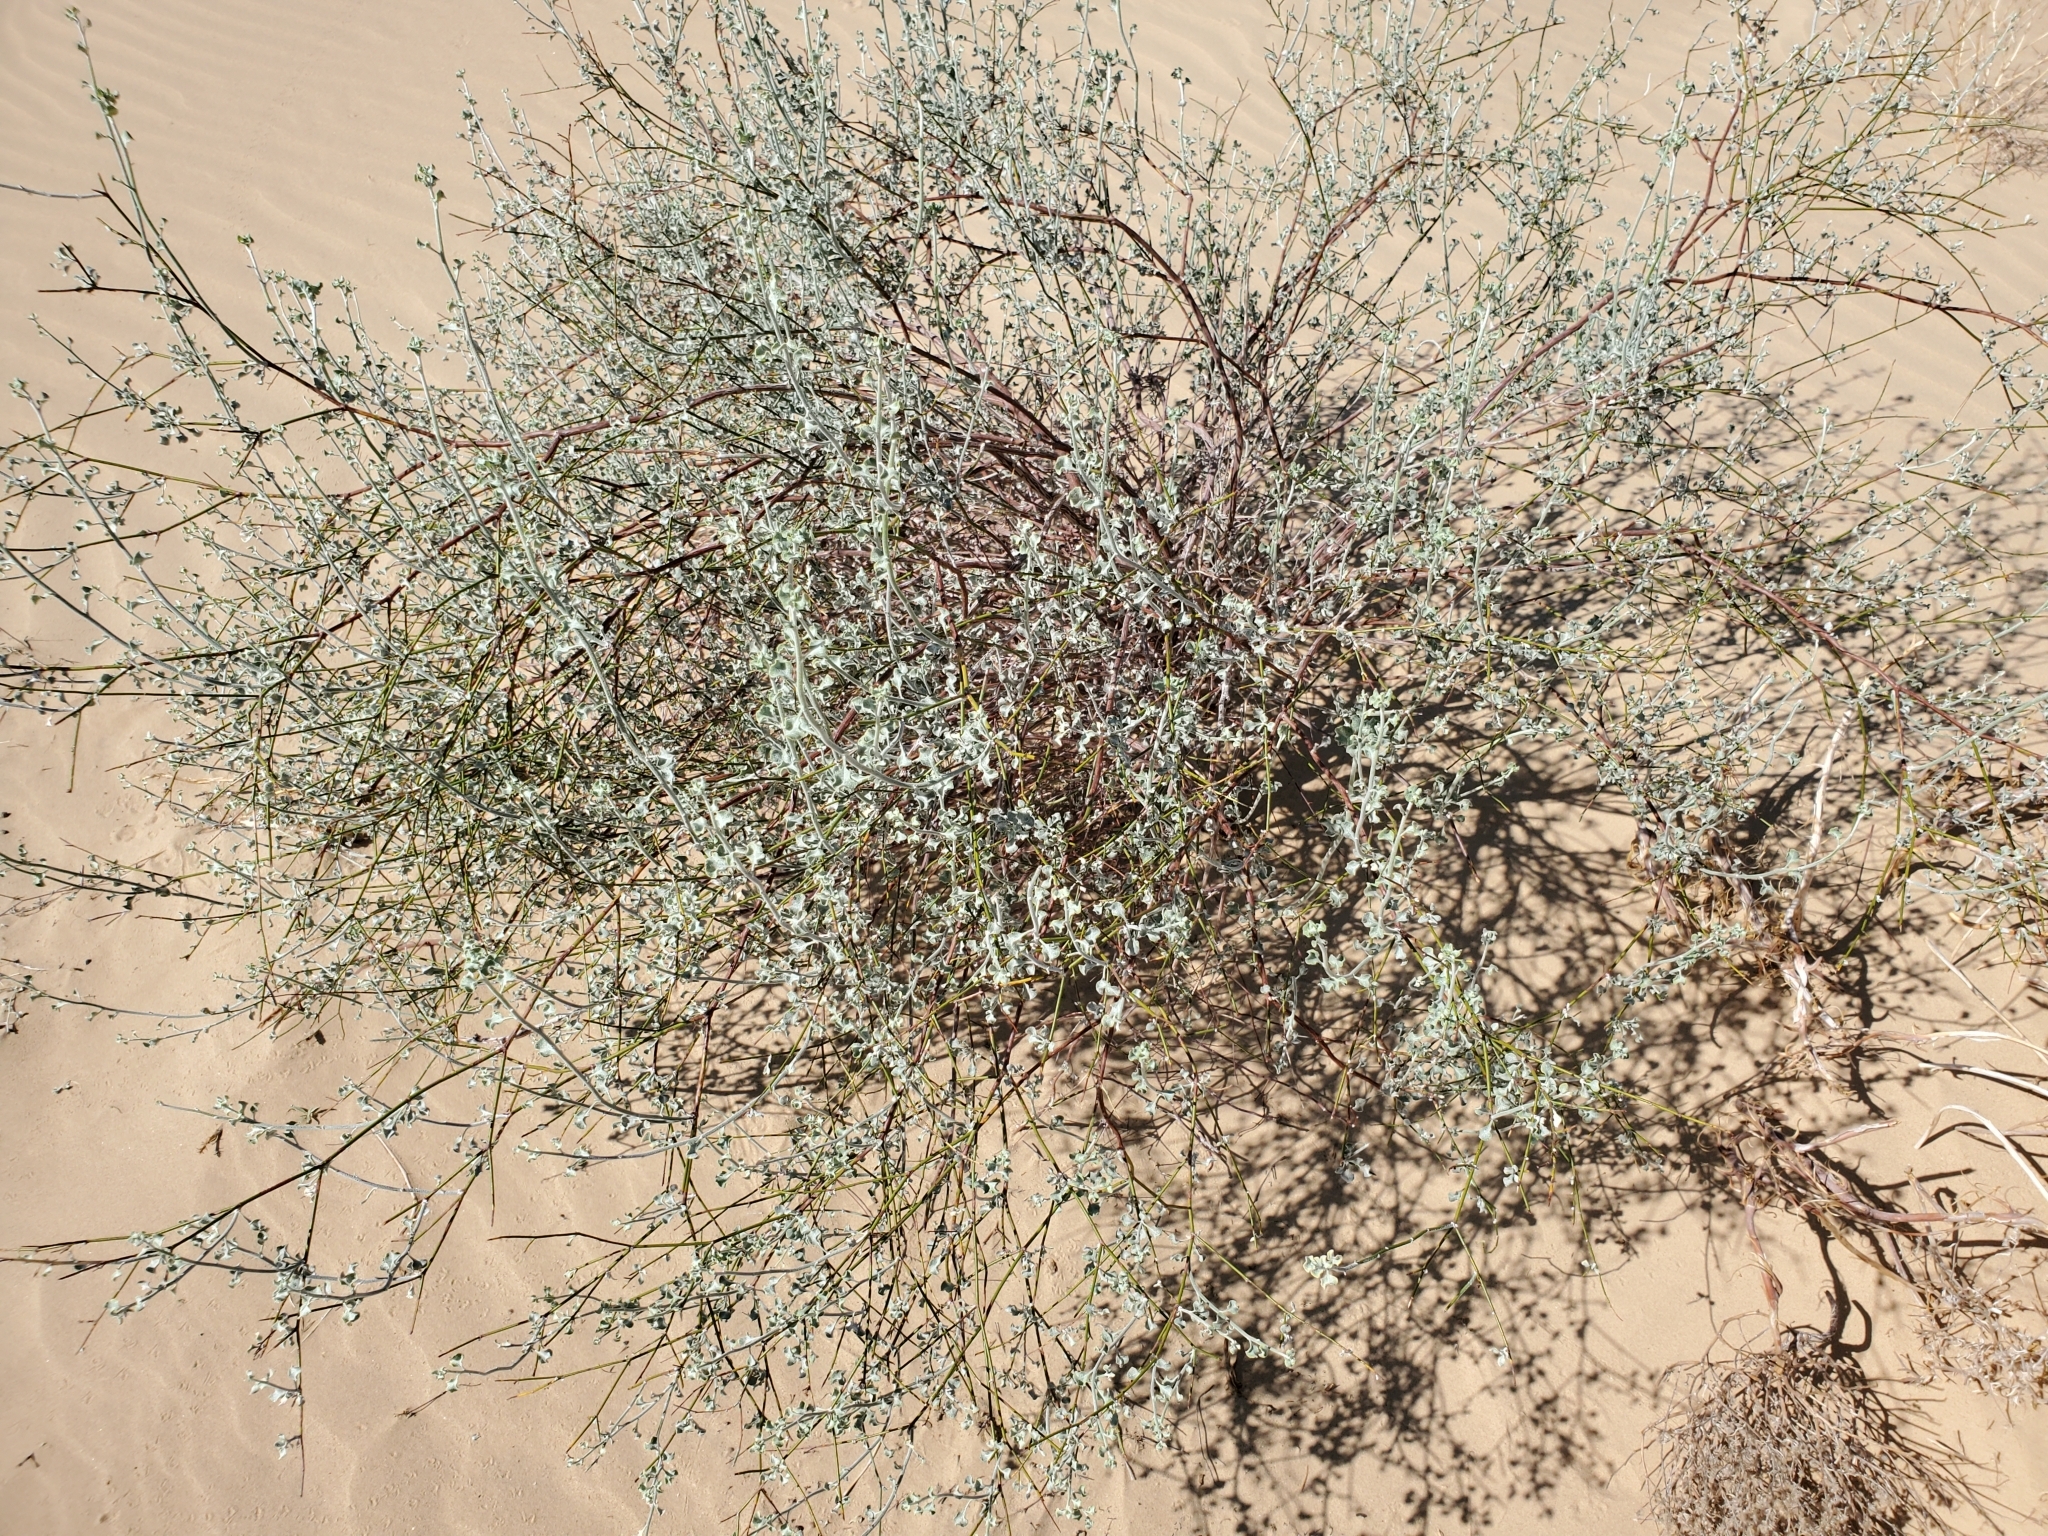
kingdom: Plantae
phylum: Tracheophyta
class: Magnoliopsida
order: Caryophyllales
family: Polygonaceae
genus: Eriogonum
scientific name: Eriogonum deserticola
